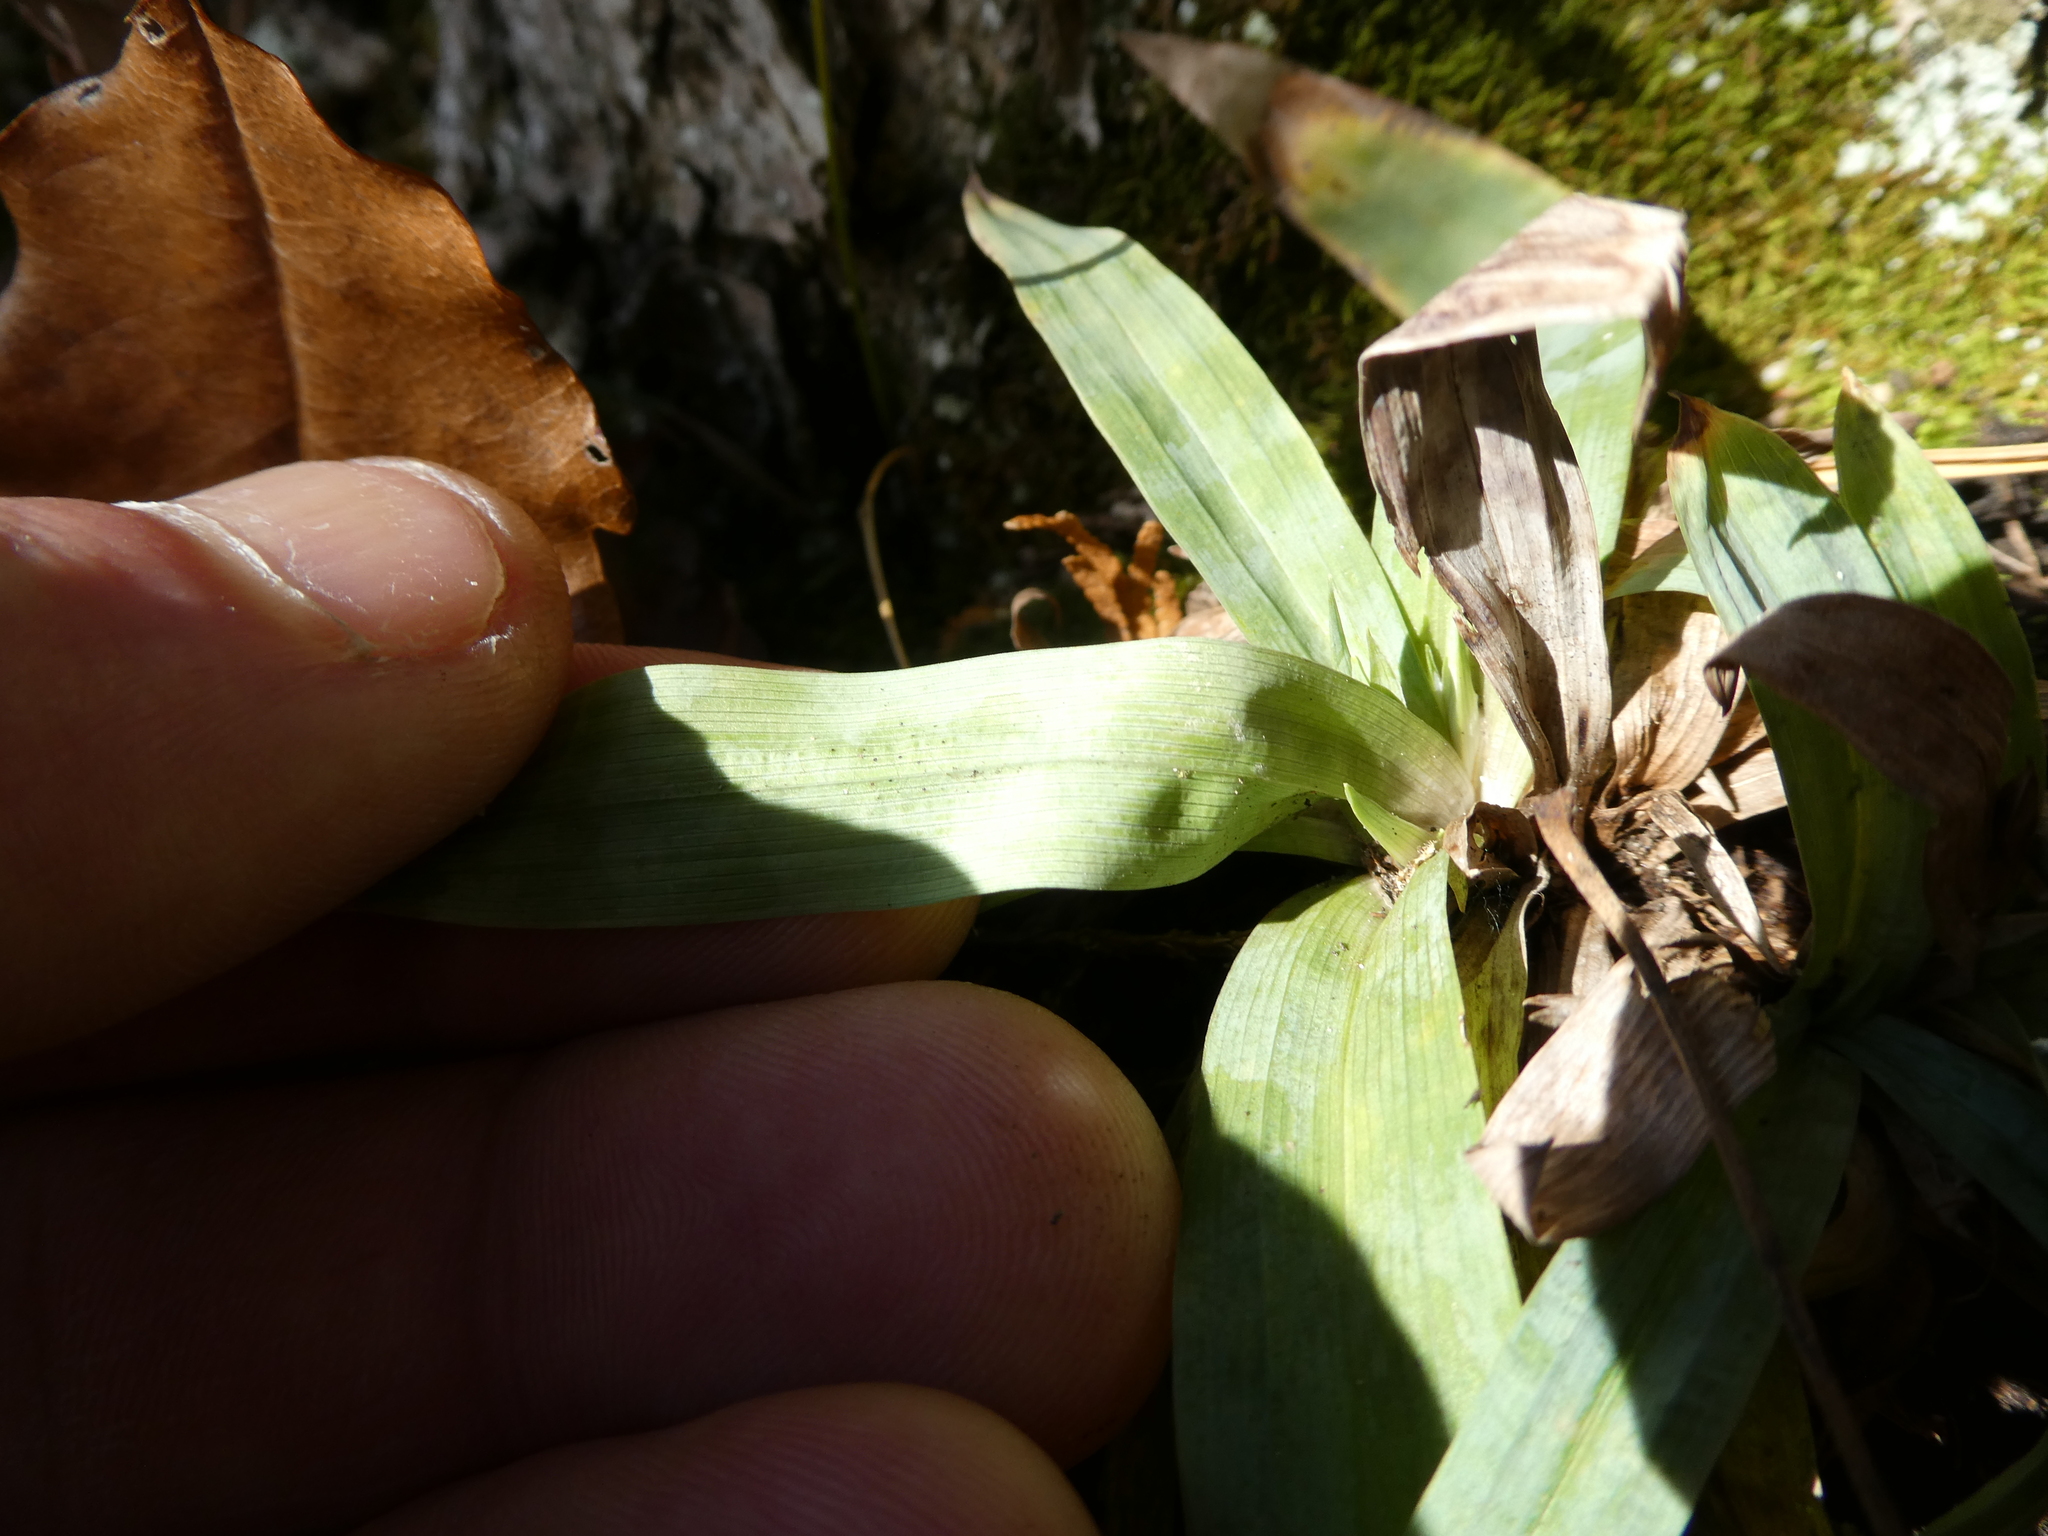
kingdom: Plantae
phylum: Tracheophyta
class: Liliopsida
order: Poales
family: Cyperaceae
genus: Carex
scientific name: Carex platyphylla
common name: Broad-leaved sedge
